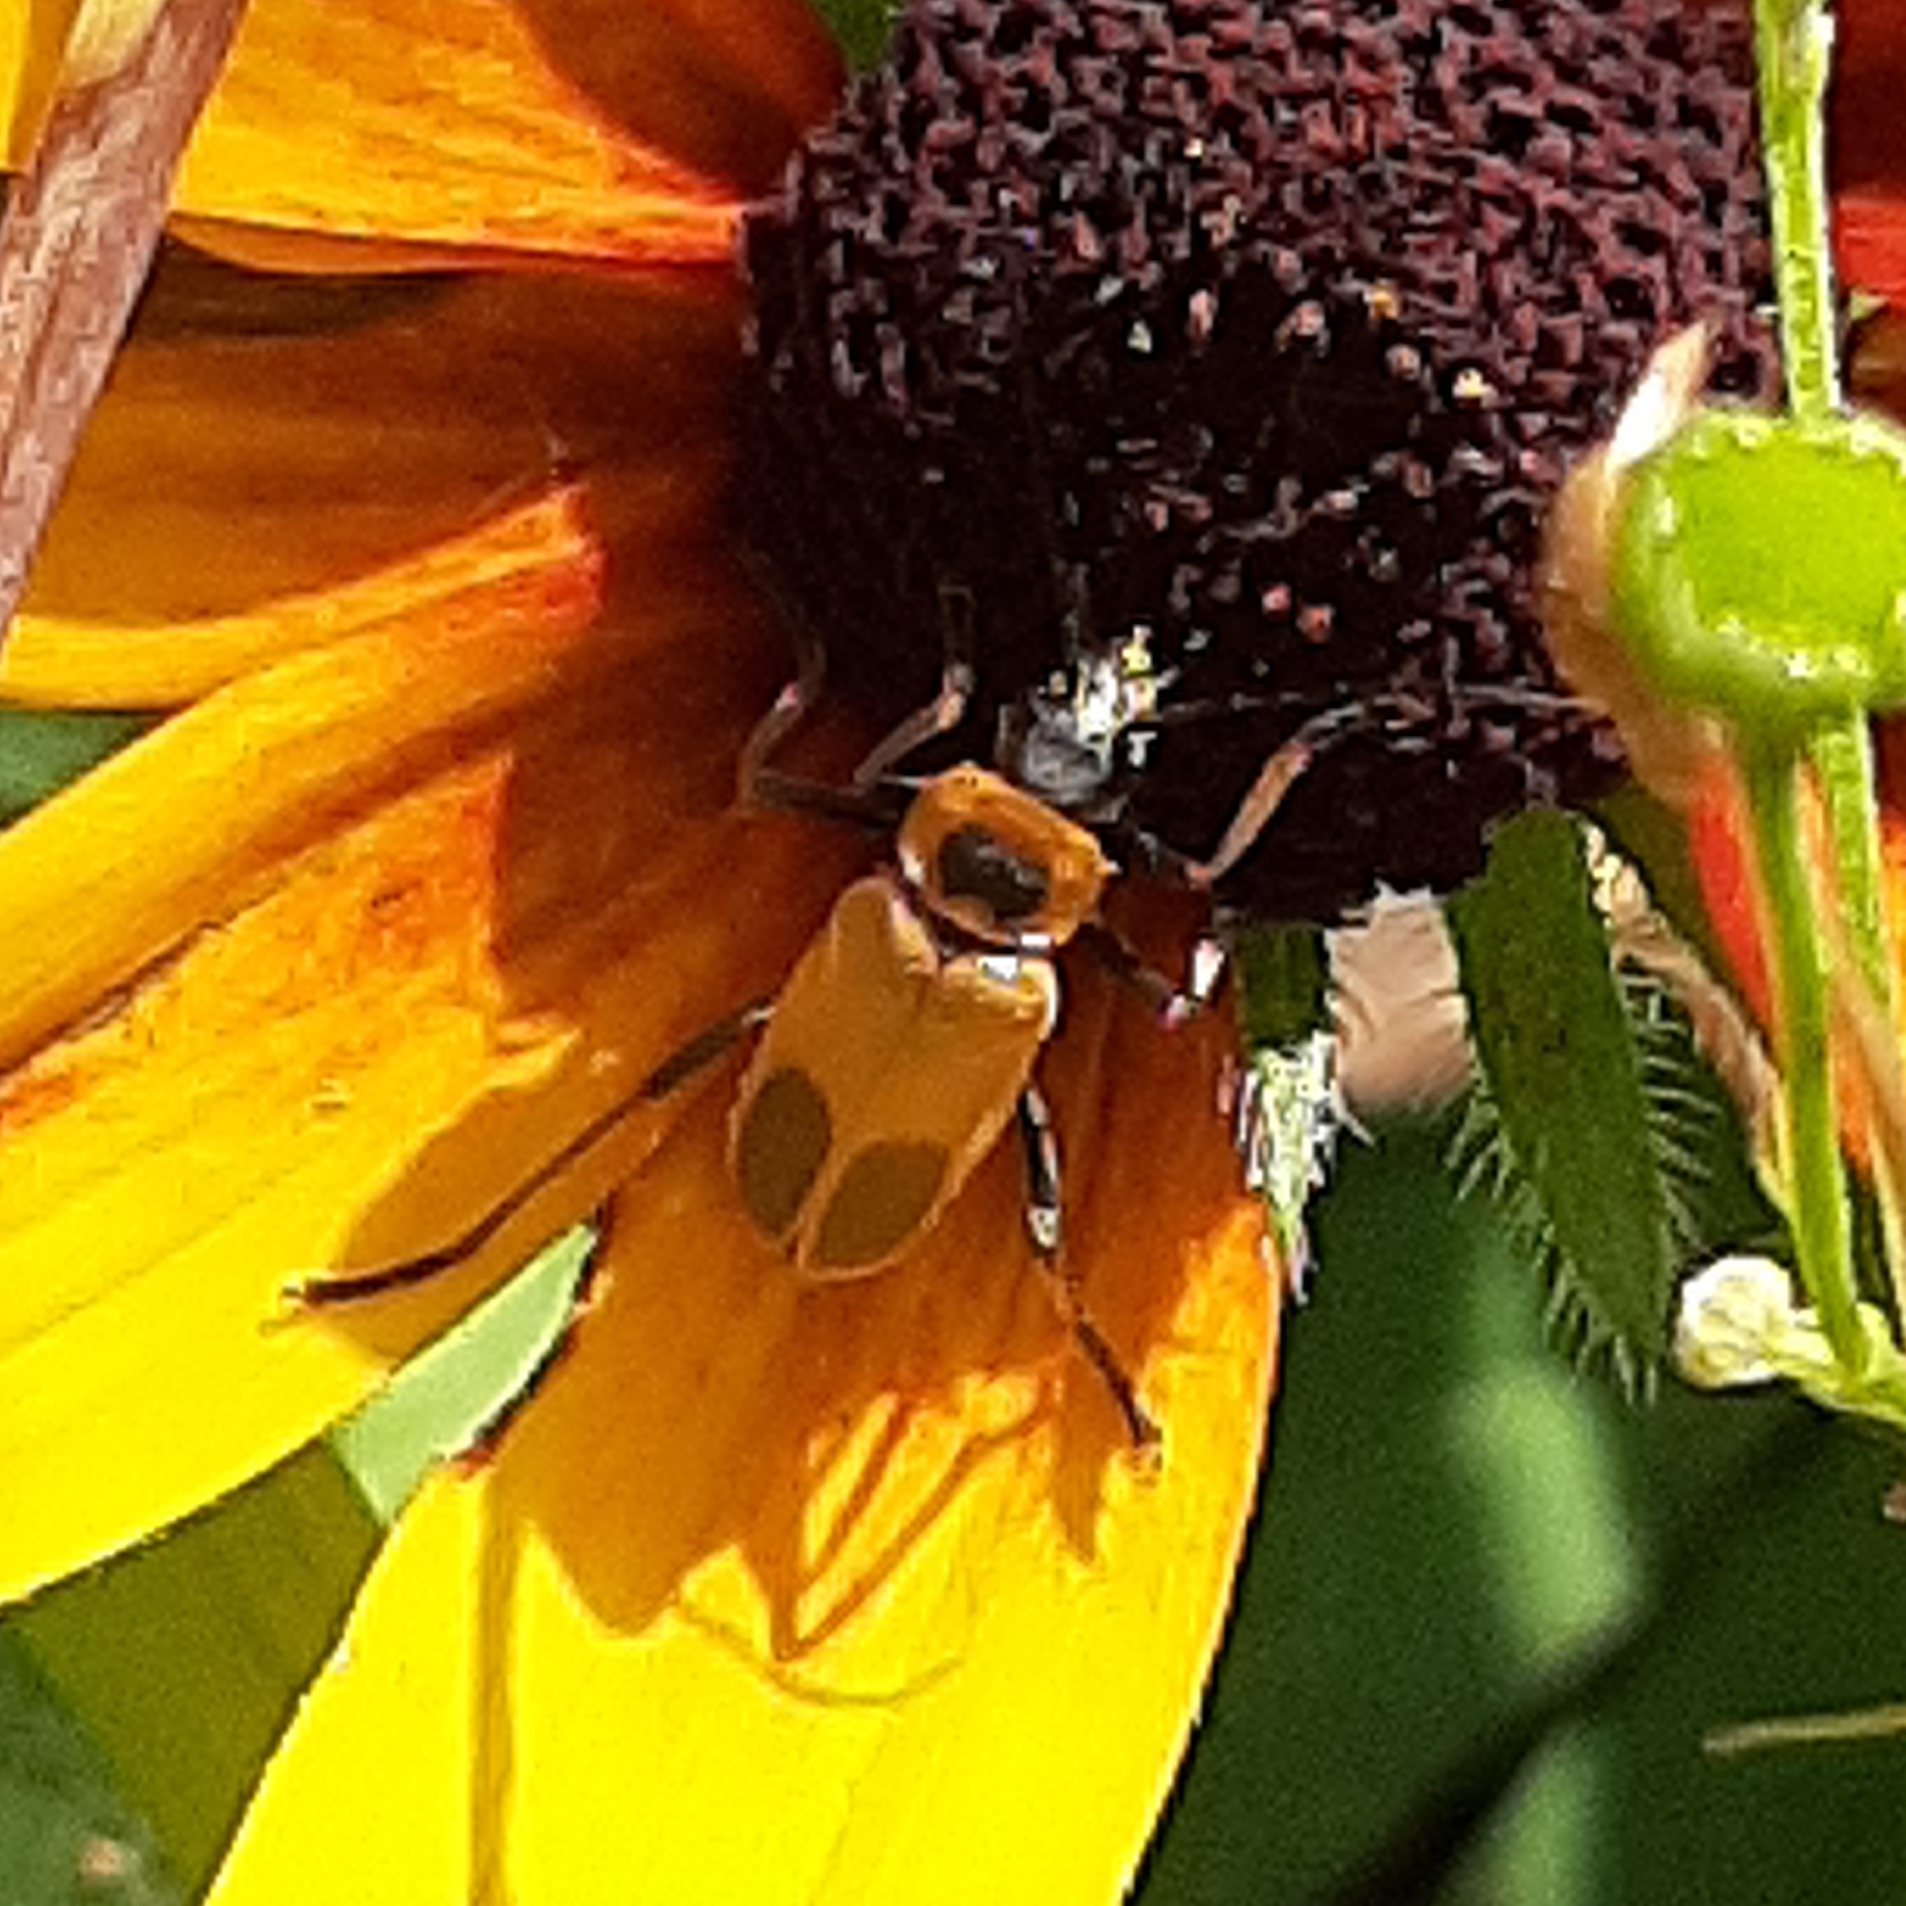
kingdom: Animalia
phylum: Arthropoda
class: Insecta
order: Coleoptera
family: Cantharidae
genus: Chauliognathus
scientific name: Chauliognathus pensylvanicus
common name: Goldenrod soldier beetle
